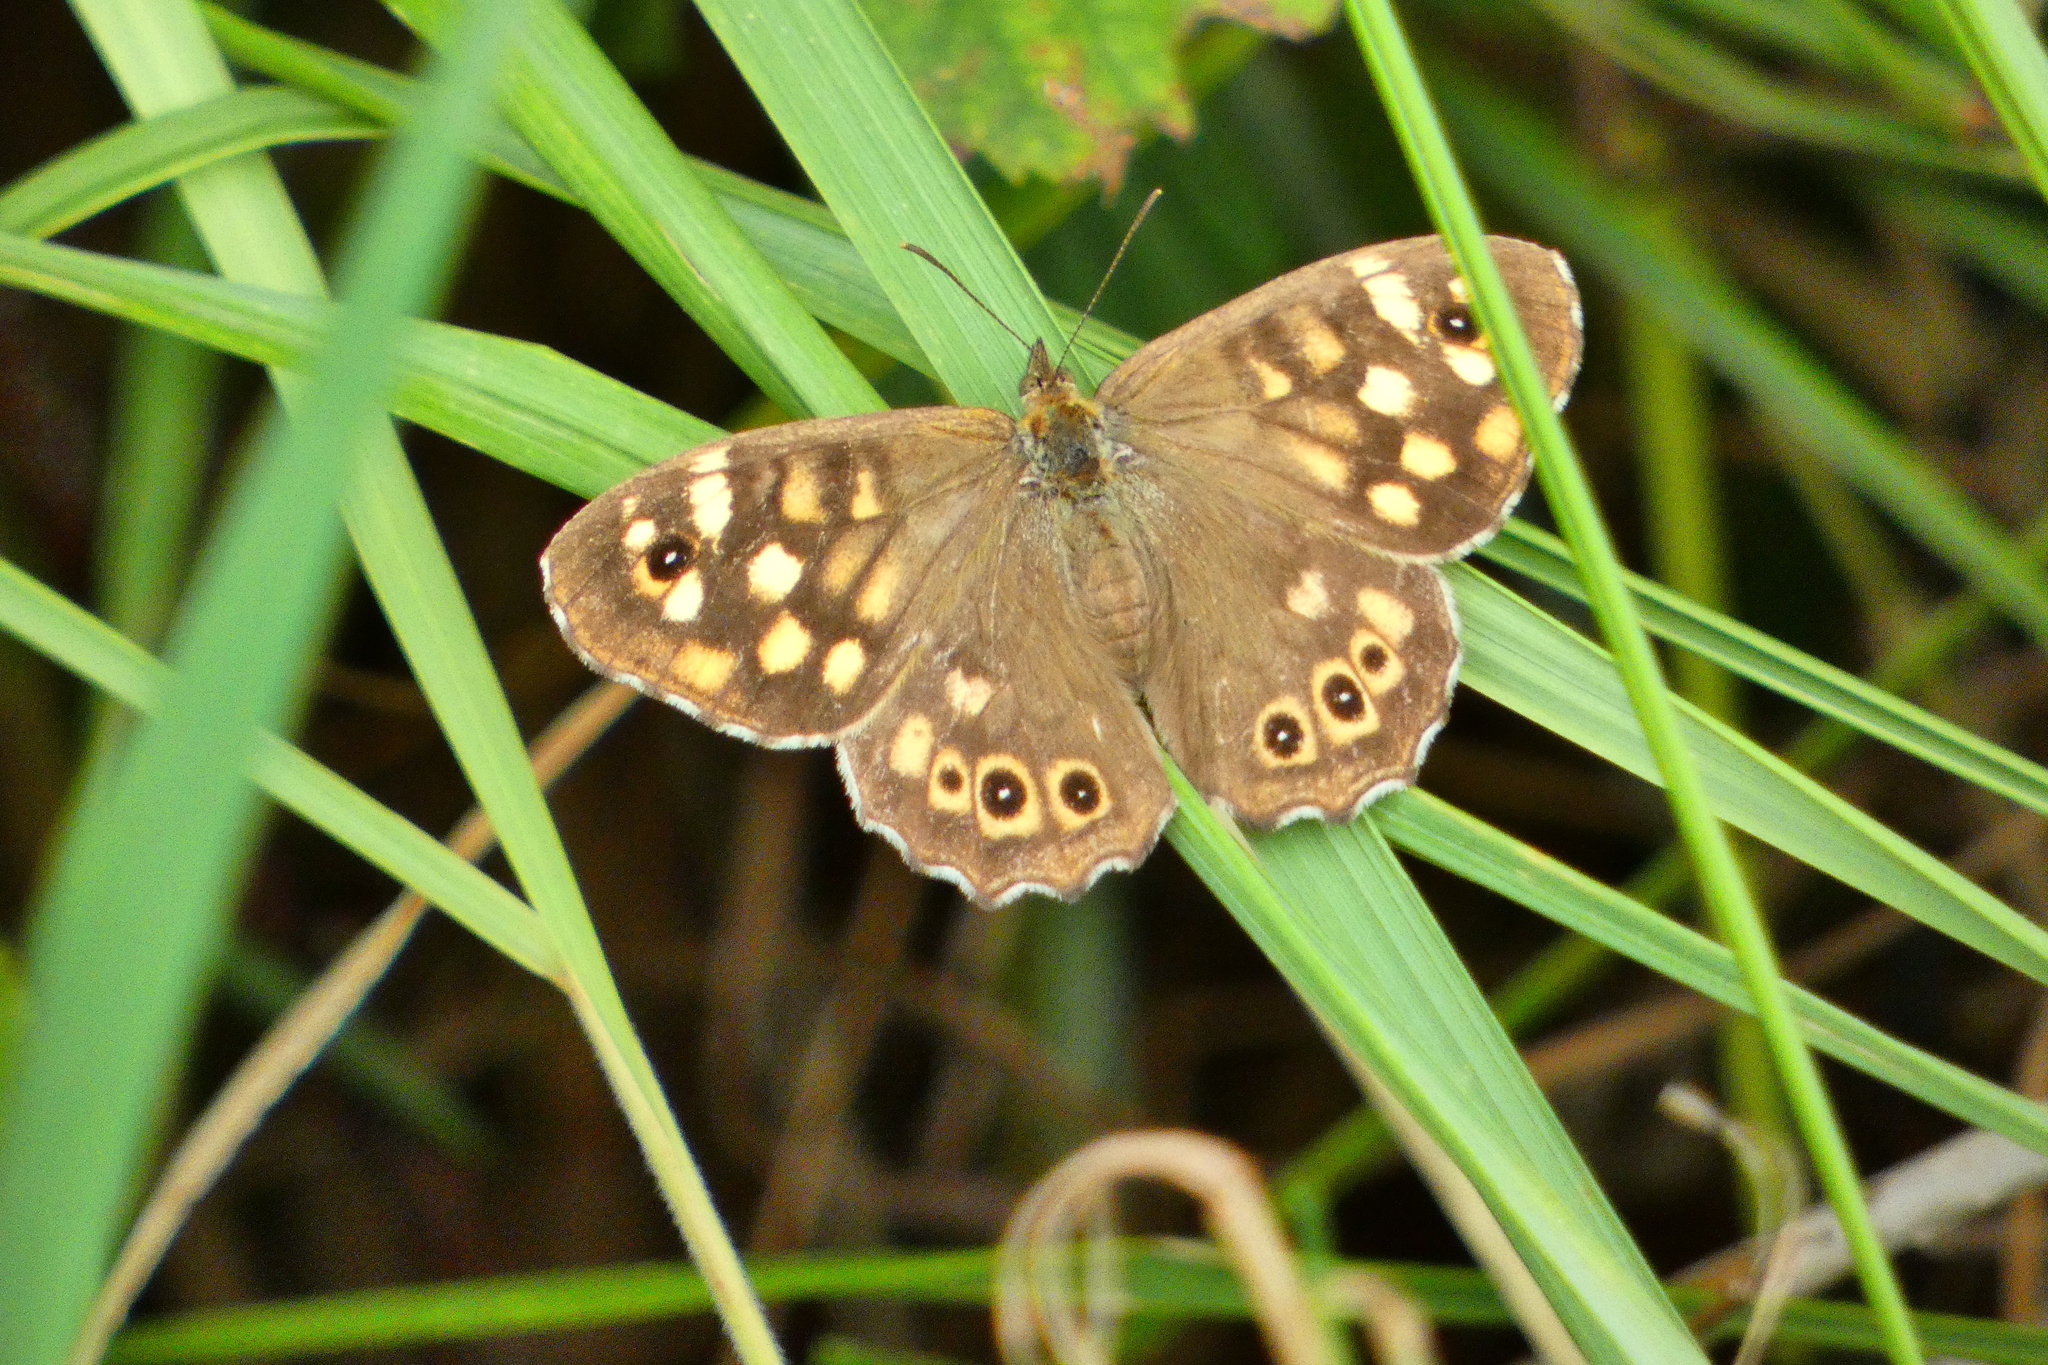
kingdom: Animalia
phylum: Arthropoda
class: Insecta
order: Lepidoptera
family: Nymphalidae
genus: Pararge
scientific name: Pararge aegeria
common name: Speckled wood
